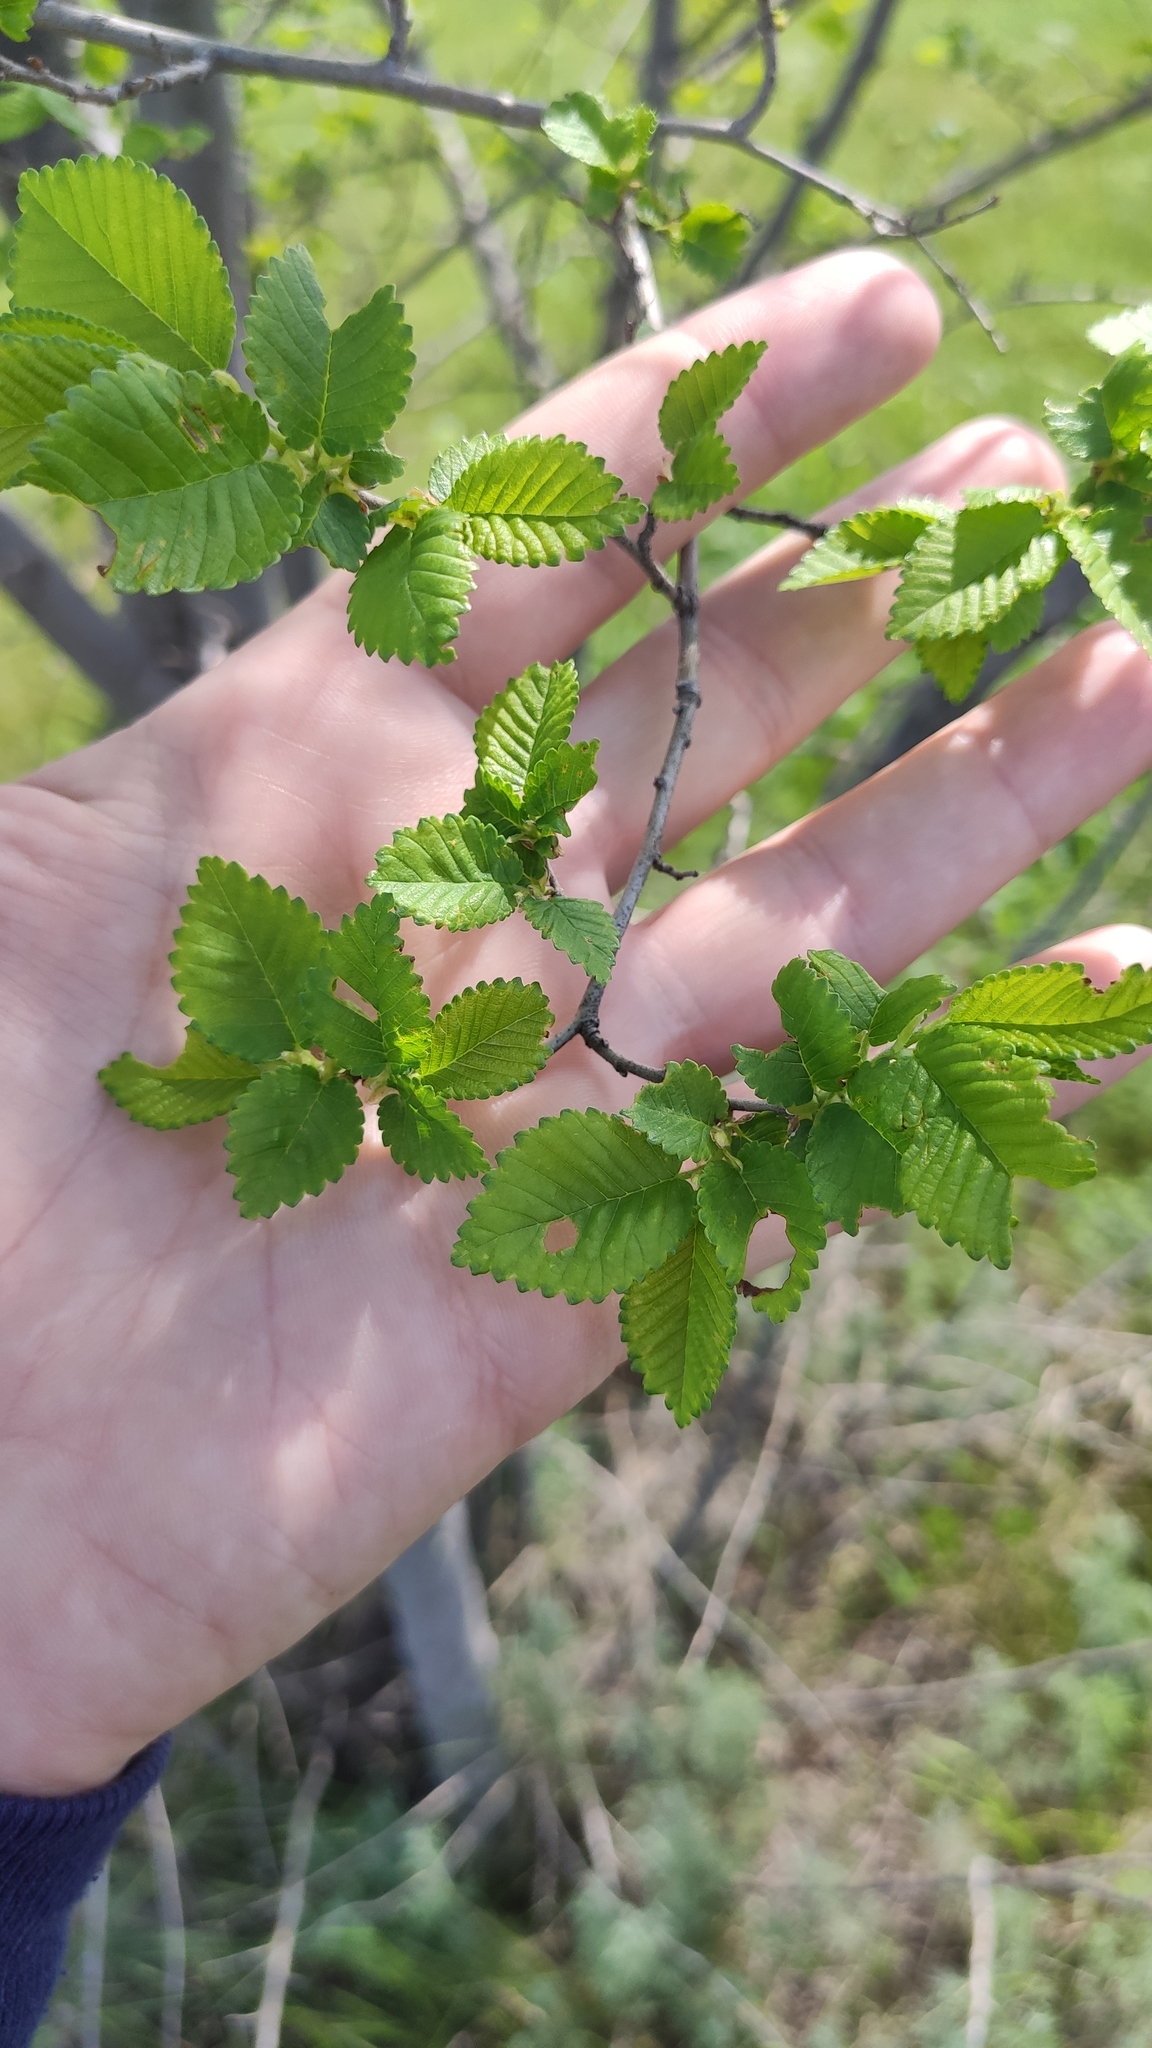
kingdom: Plantae
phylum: Tracheophyta
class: Magnoliopsida
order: Rosales
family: Ulmaceae
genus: Ulmus
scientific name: Ulmus pumila
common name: Siberian elm
